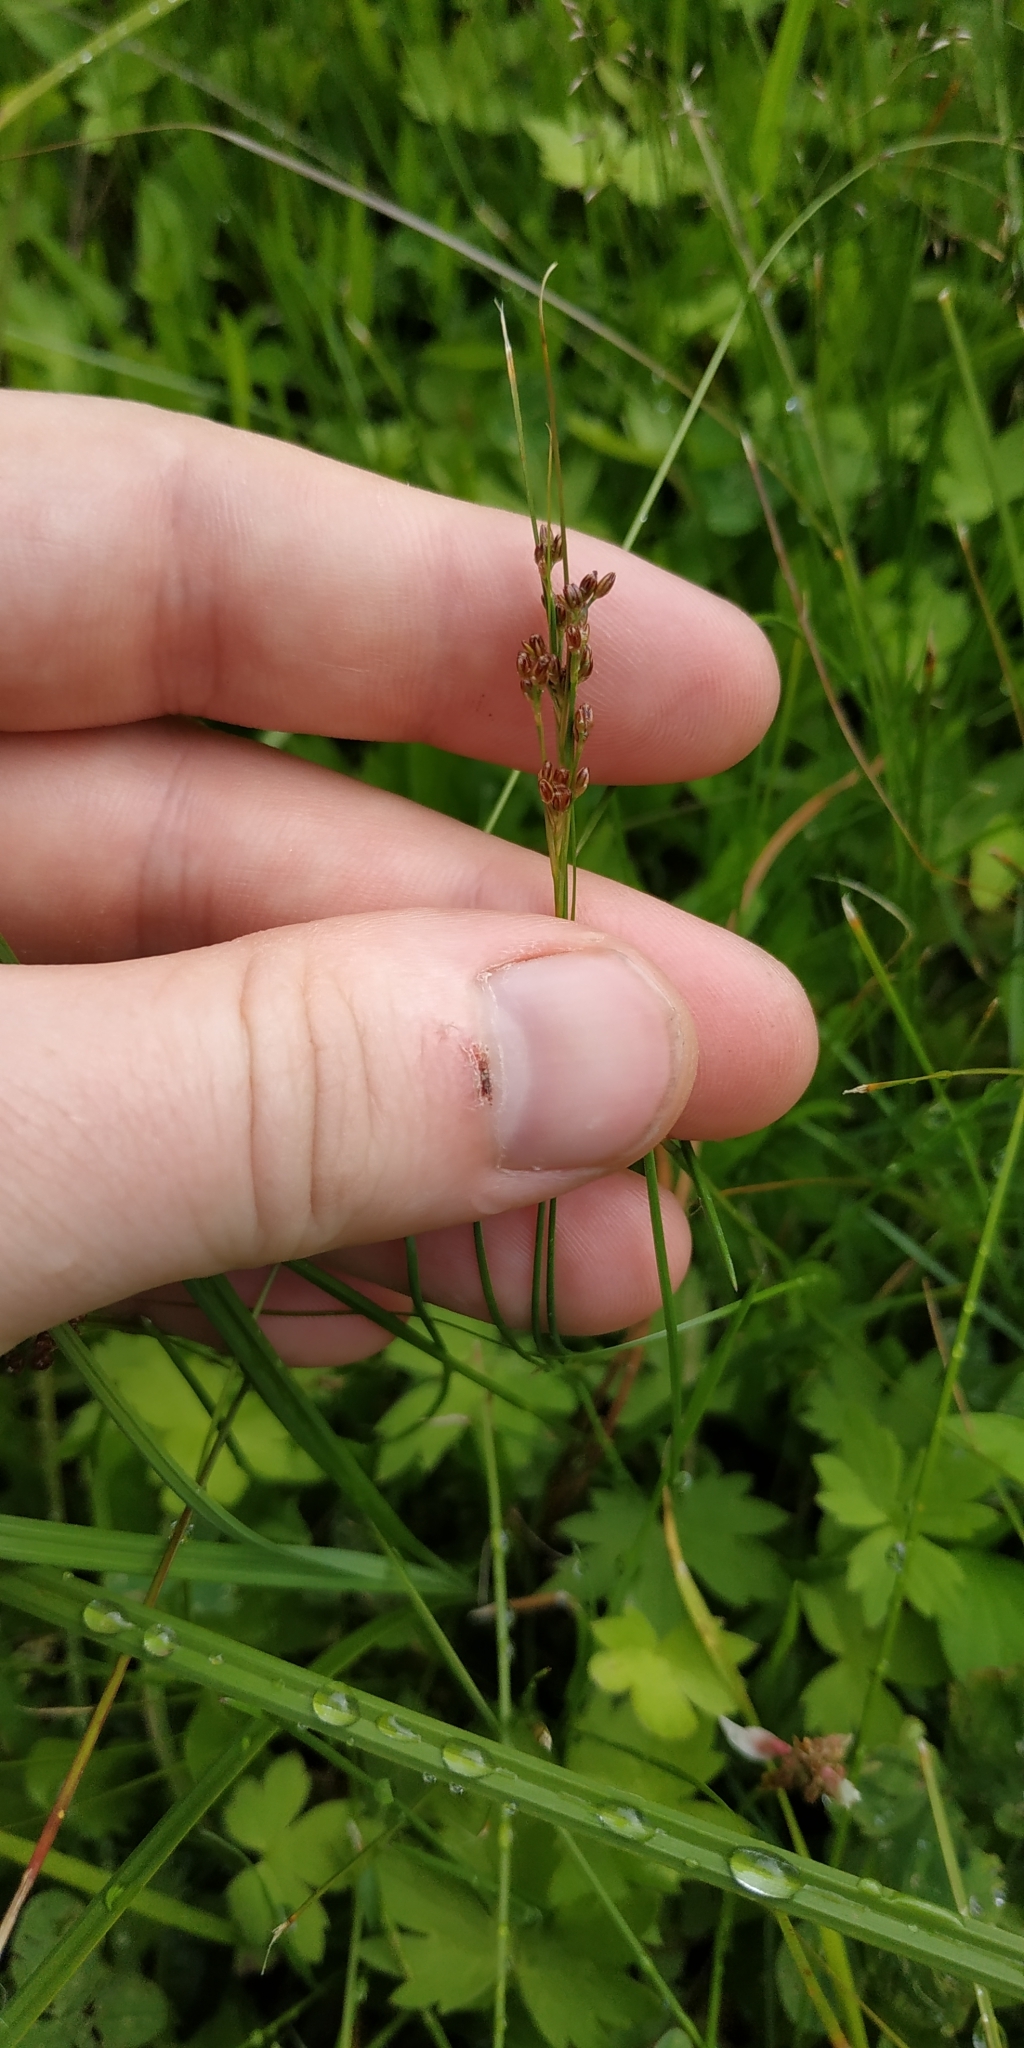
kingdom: Plantae
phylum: Tracheophyta
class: Liliopsida
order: Poales
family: Juncaceae
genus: Juncus
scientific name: Juncus compressus
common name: Round-fruited rush
